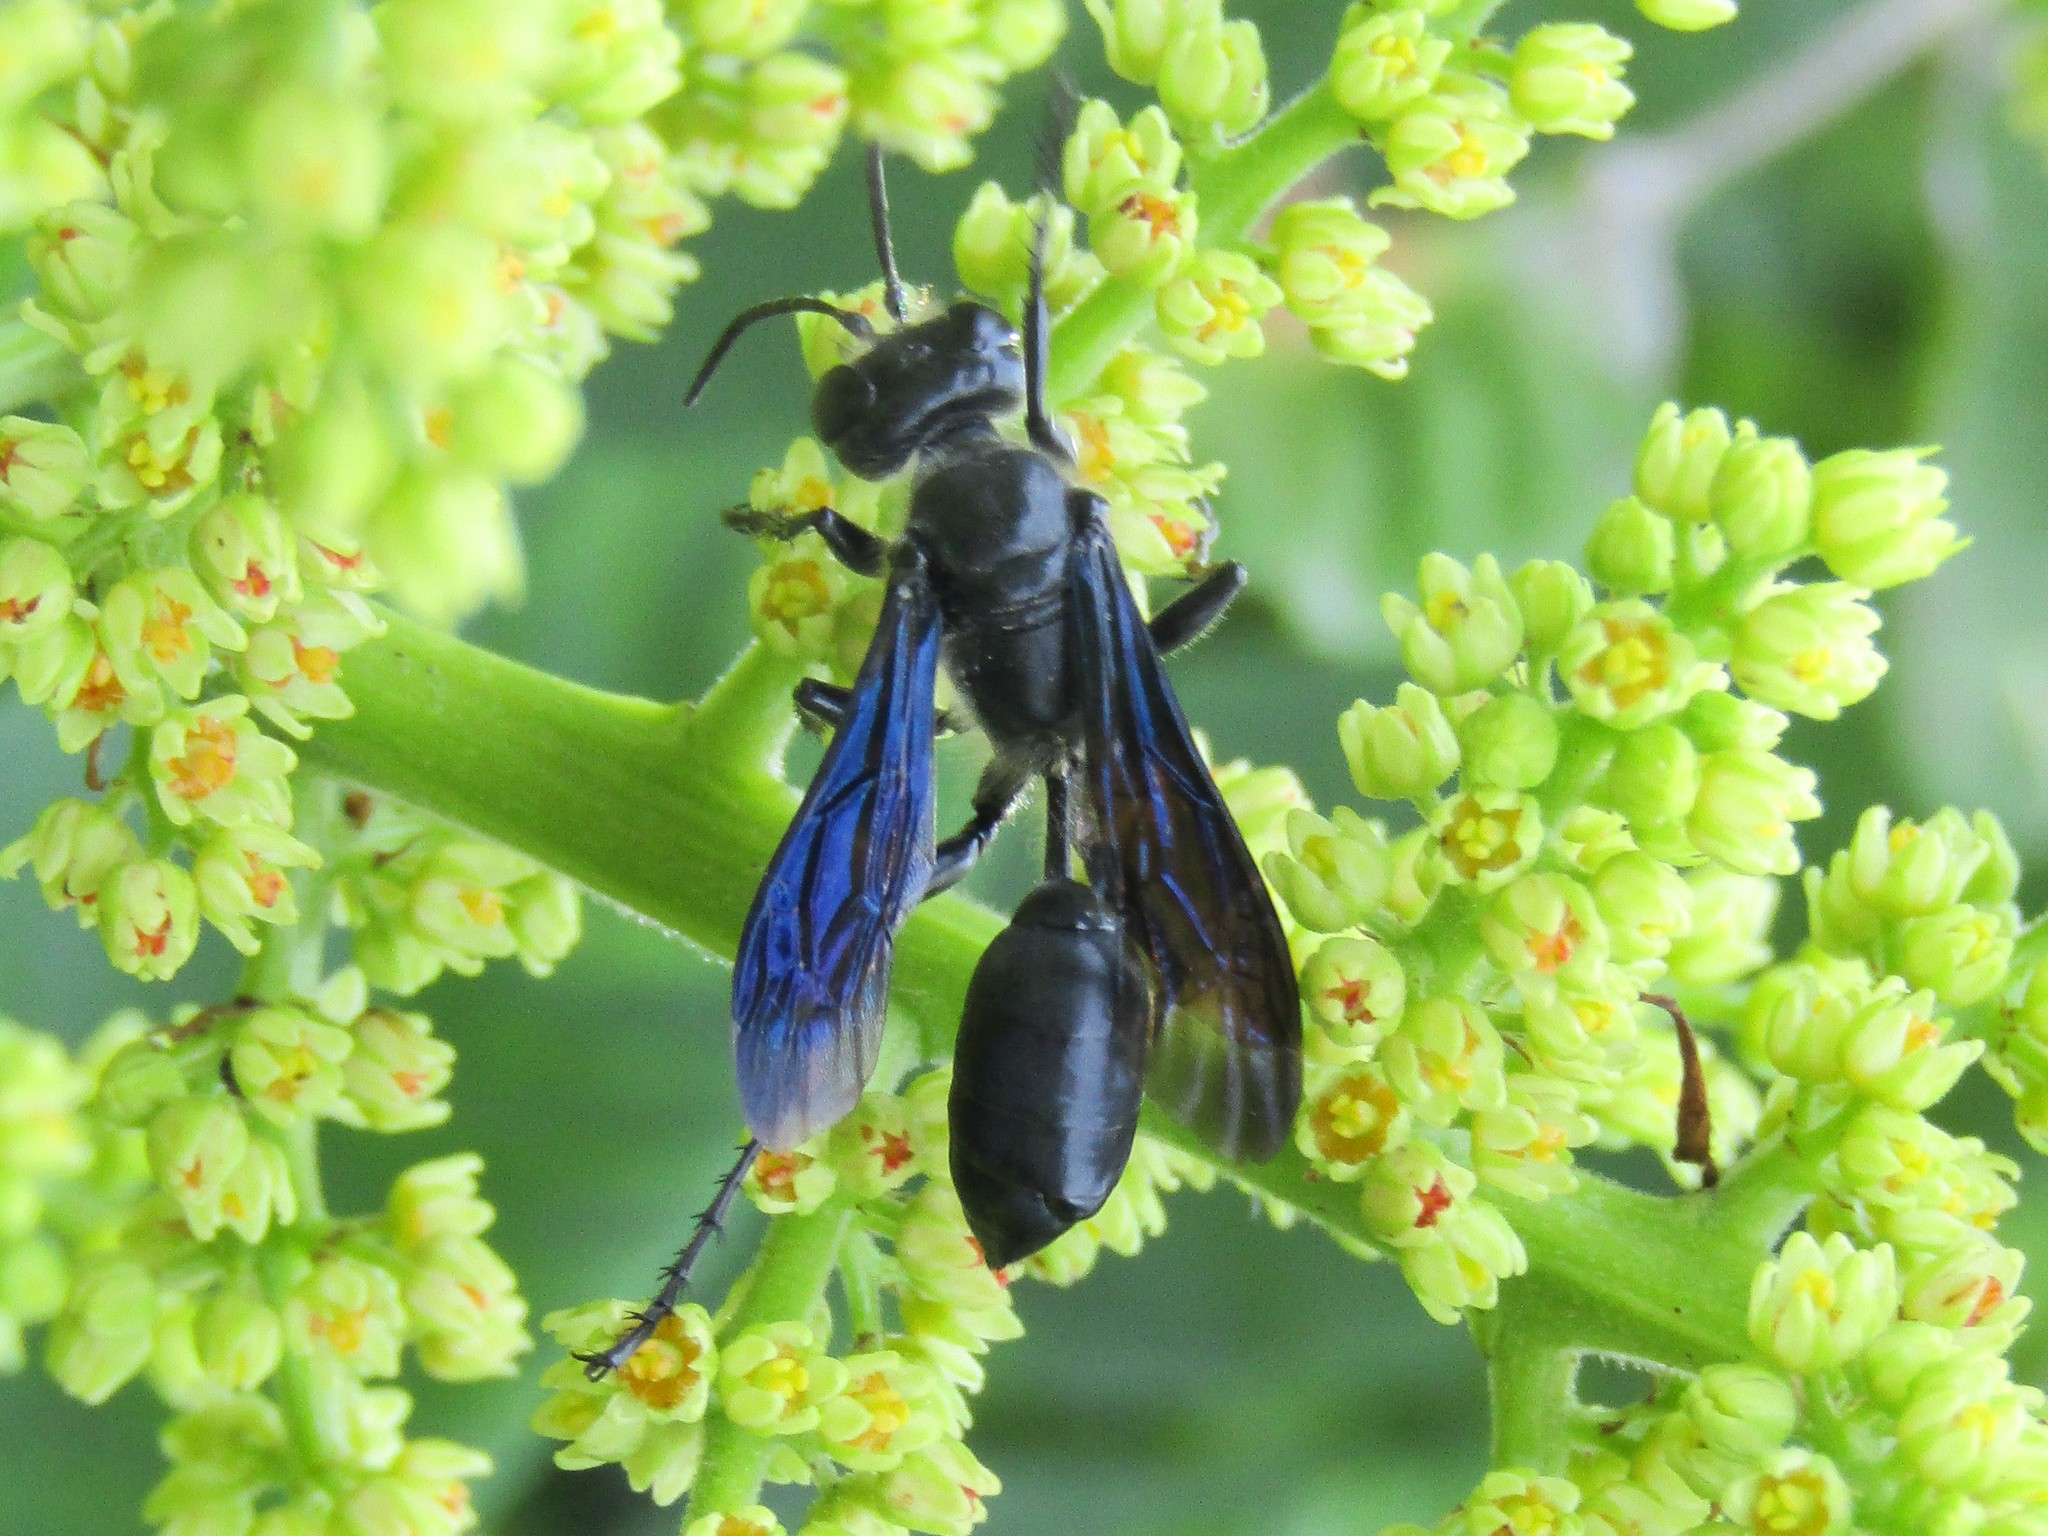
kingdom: Animalia
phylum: Arthropoda
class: Insecta
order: Hymenoptera
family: Sphecidae
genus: Isodontia
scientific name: Isodontia apicalis
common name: Mud dauber
